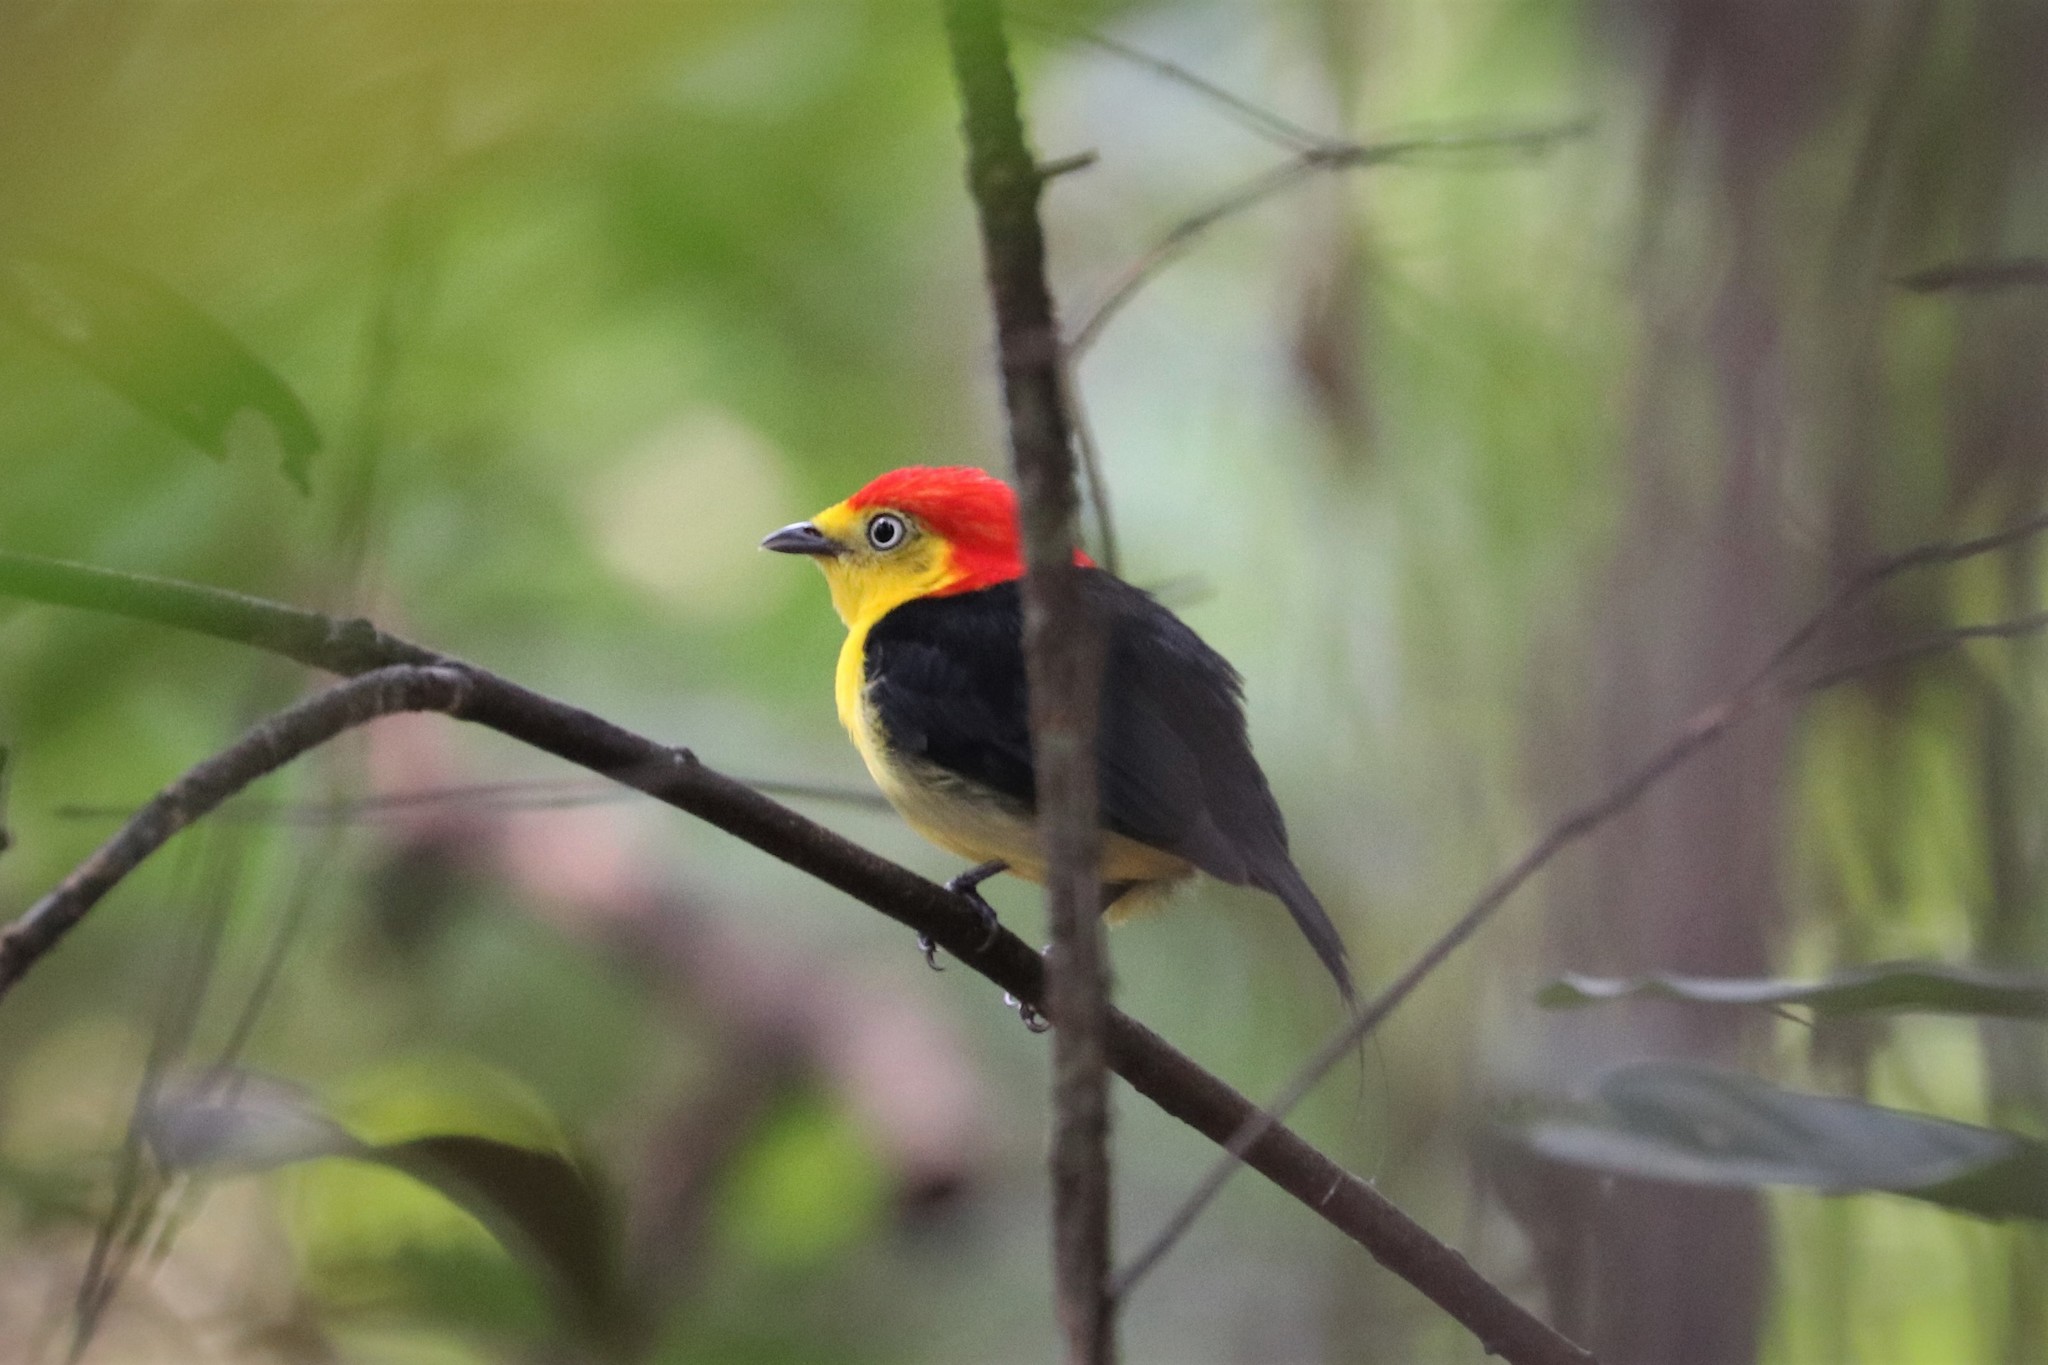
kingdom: Animalia
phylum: Chordata
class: Aves
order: Passeriformes
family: Pipridae
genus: Pipra
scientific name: Pipra filicauda
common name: Wire-tailed manakin
